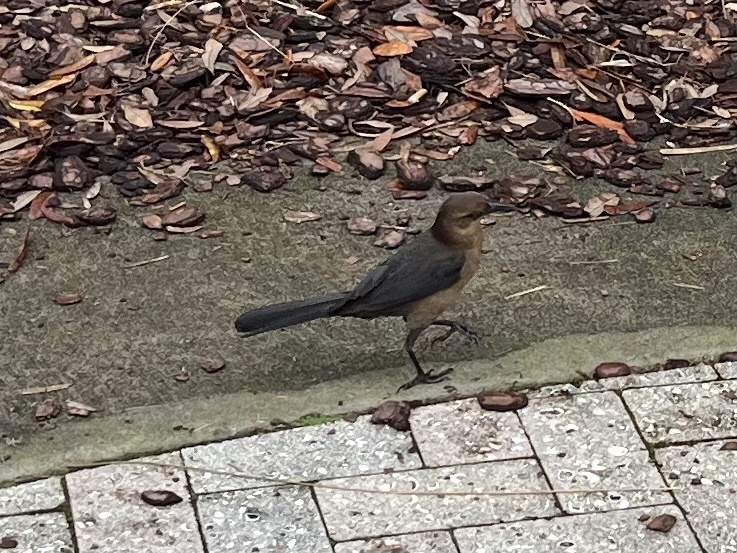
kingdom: Animalia
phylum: Chordata
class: Aves
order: Passeriformes
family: Icteridae
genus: Quiscalus
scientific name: Quiscalus major
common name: Boat-tailed grackle
